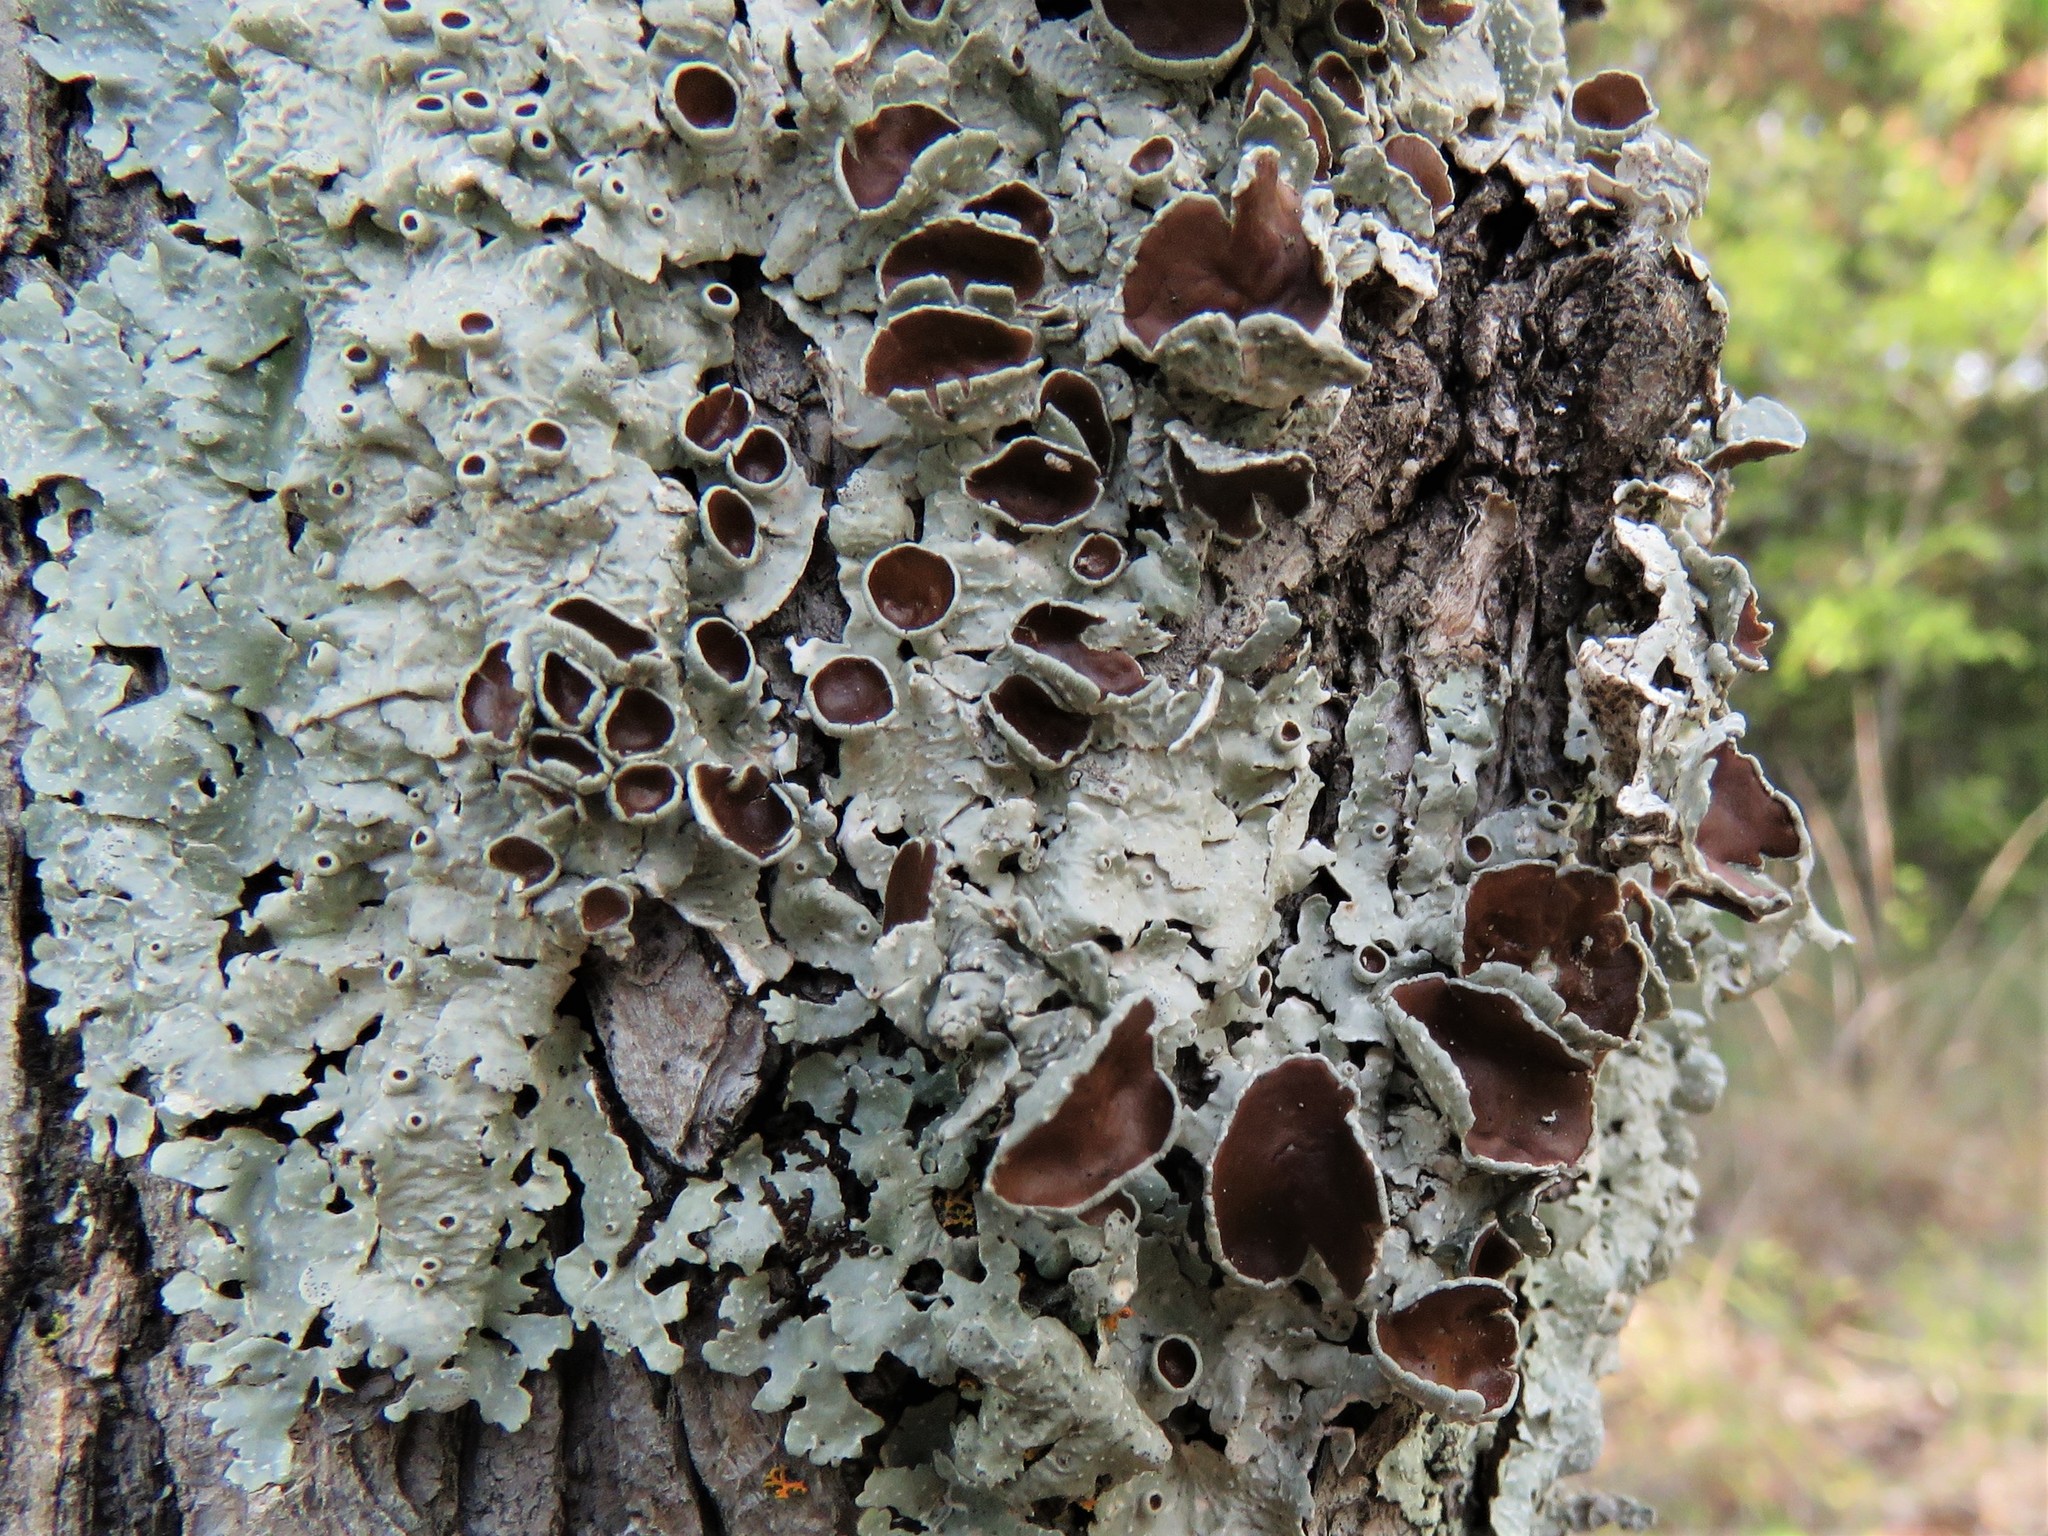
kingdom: Fungi
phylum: Ascomycota
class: Lecanoromycetes
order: Lecanorales
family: Parmeliaceae
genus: Punctelia
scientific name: Punctelia bolliana
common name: Eastern speckled shield lichen
